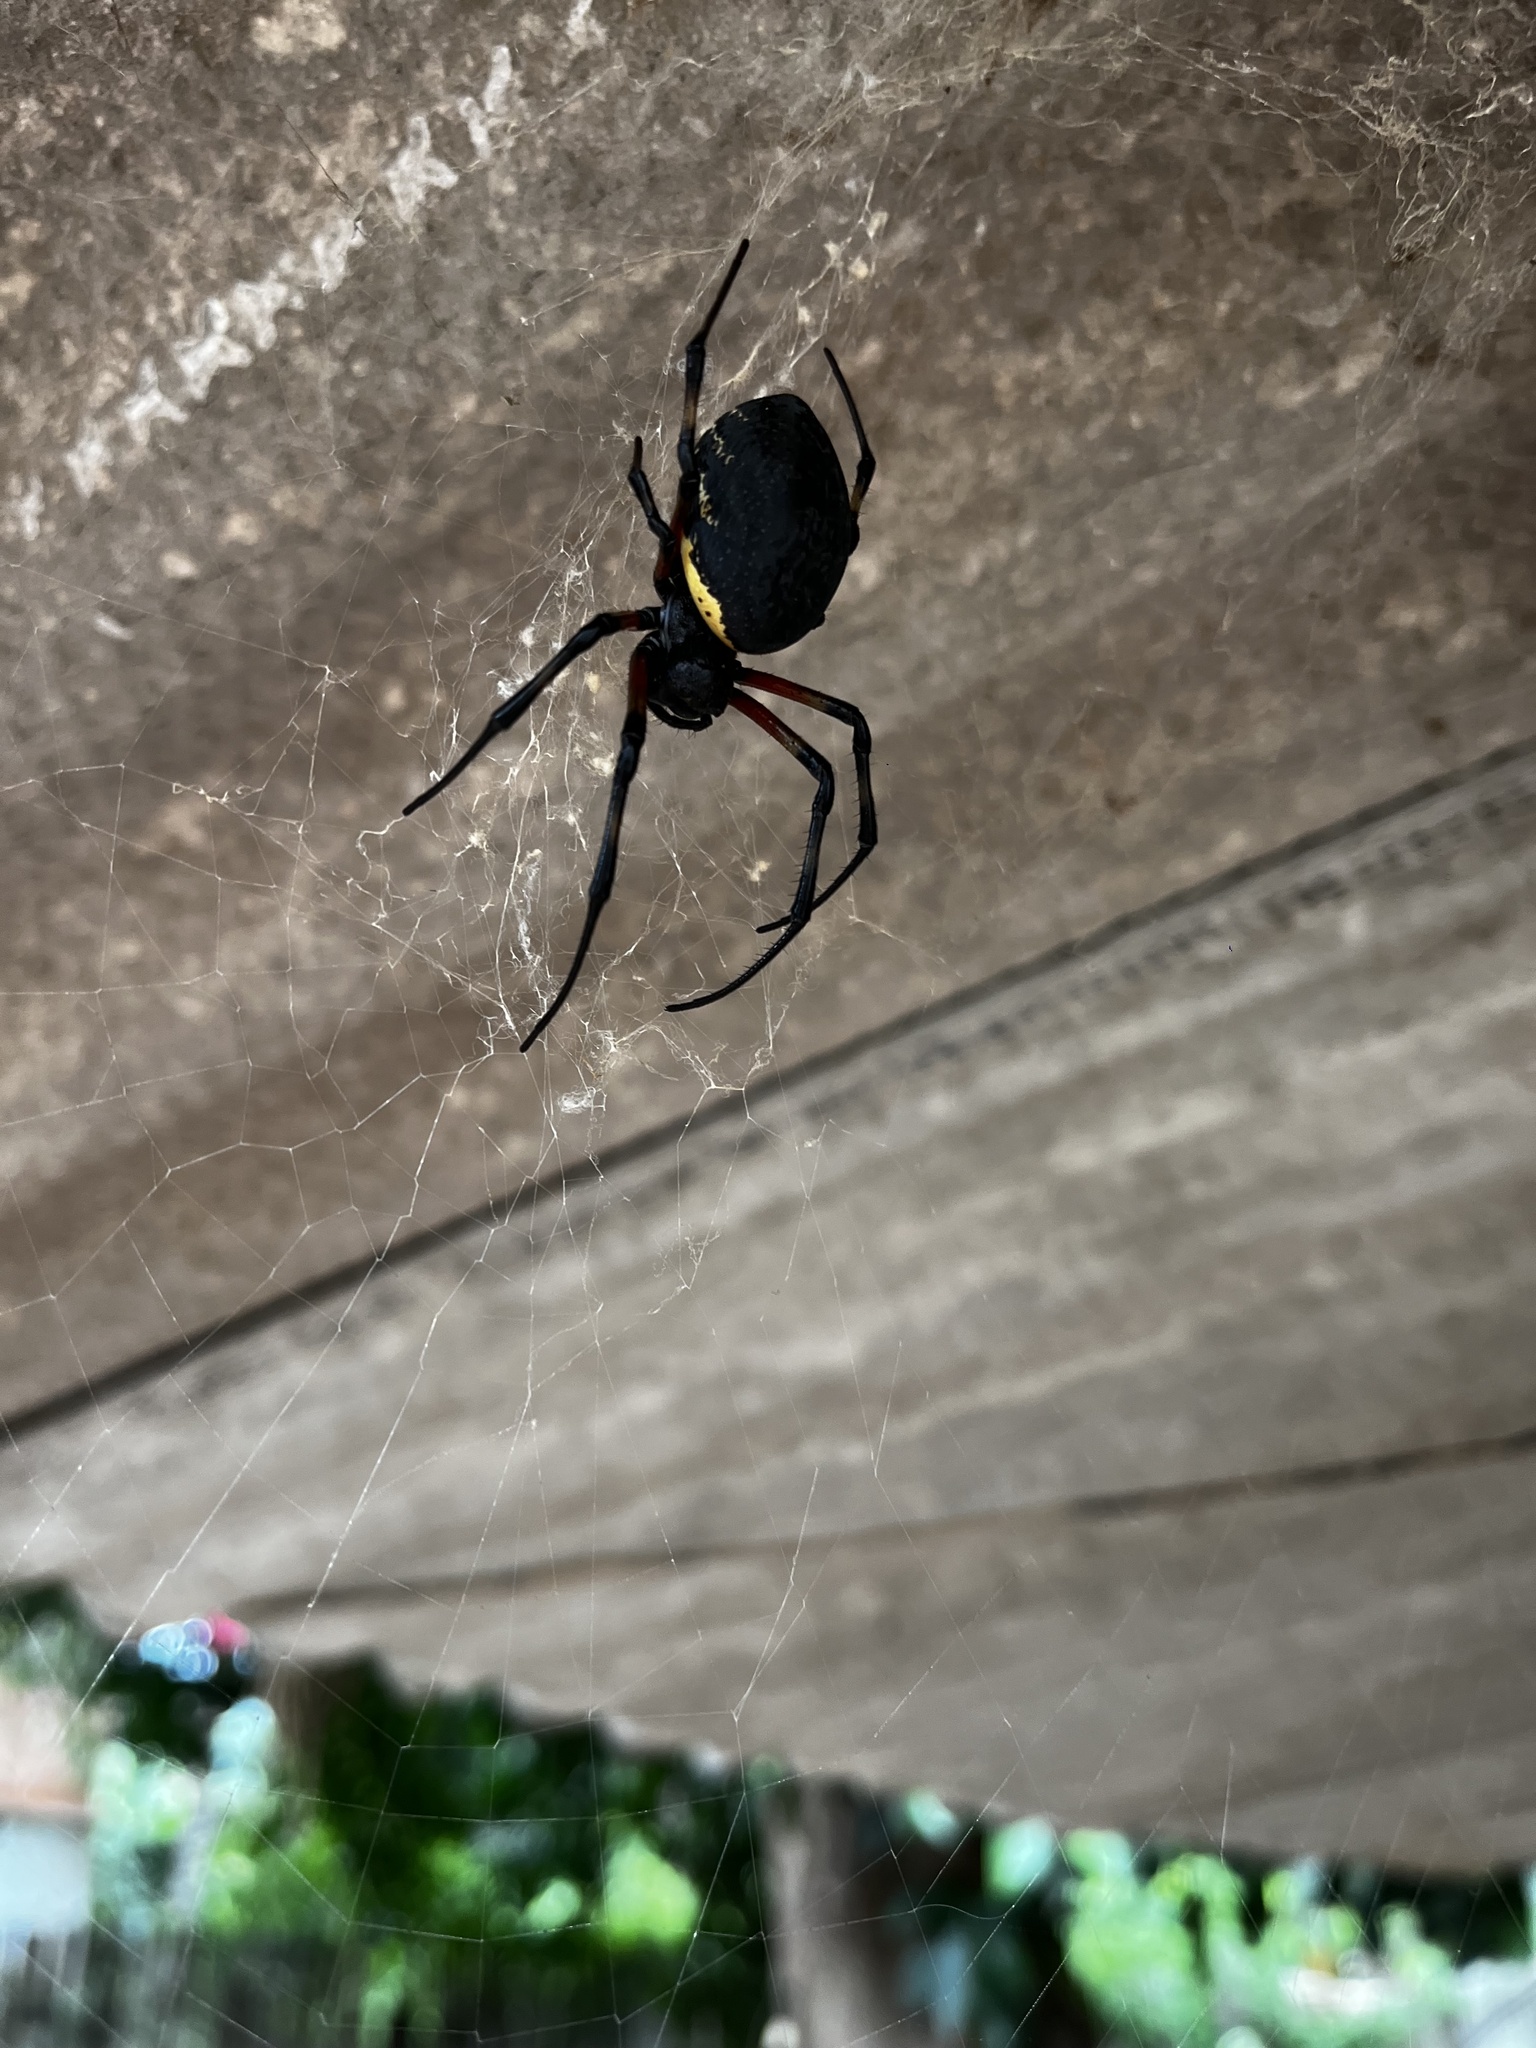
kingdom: Animalia
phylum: Arthropoda
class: Arachnida
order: Araneae
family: Araneidae
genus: Nephilingis
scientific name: Nephilingis cruentata
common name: African hermit spider
